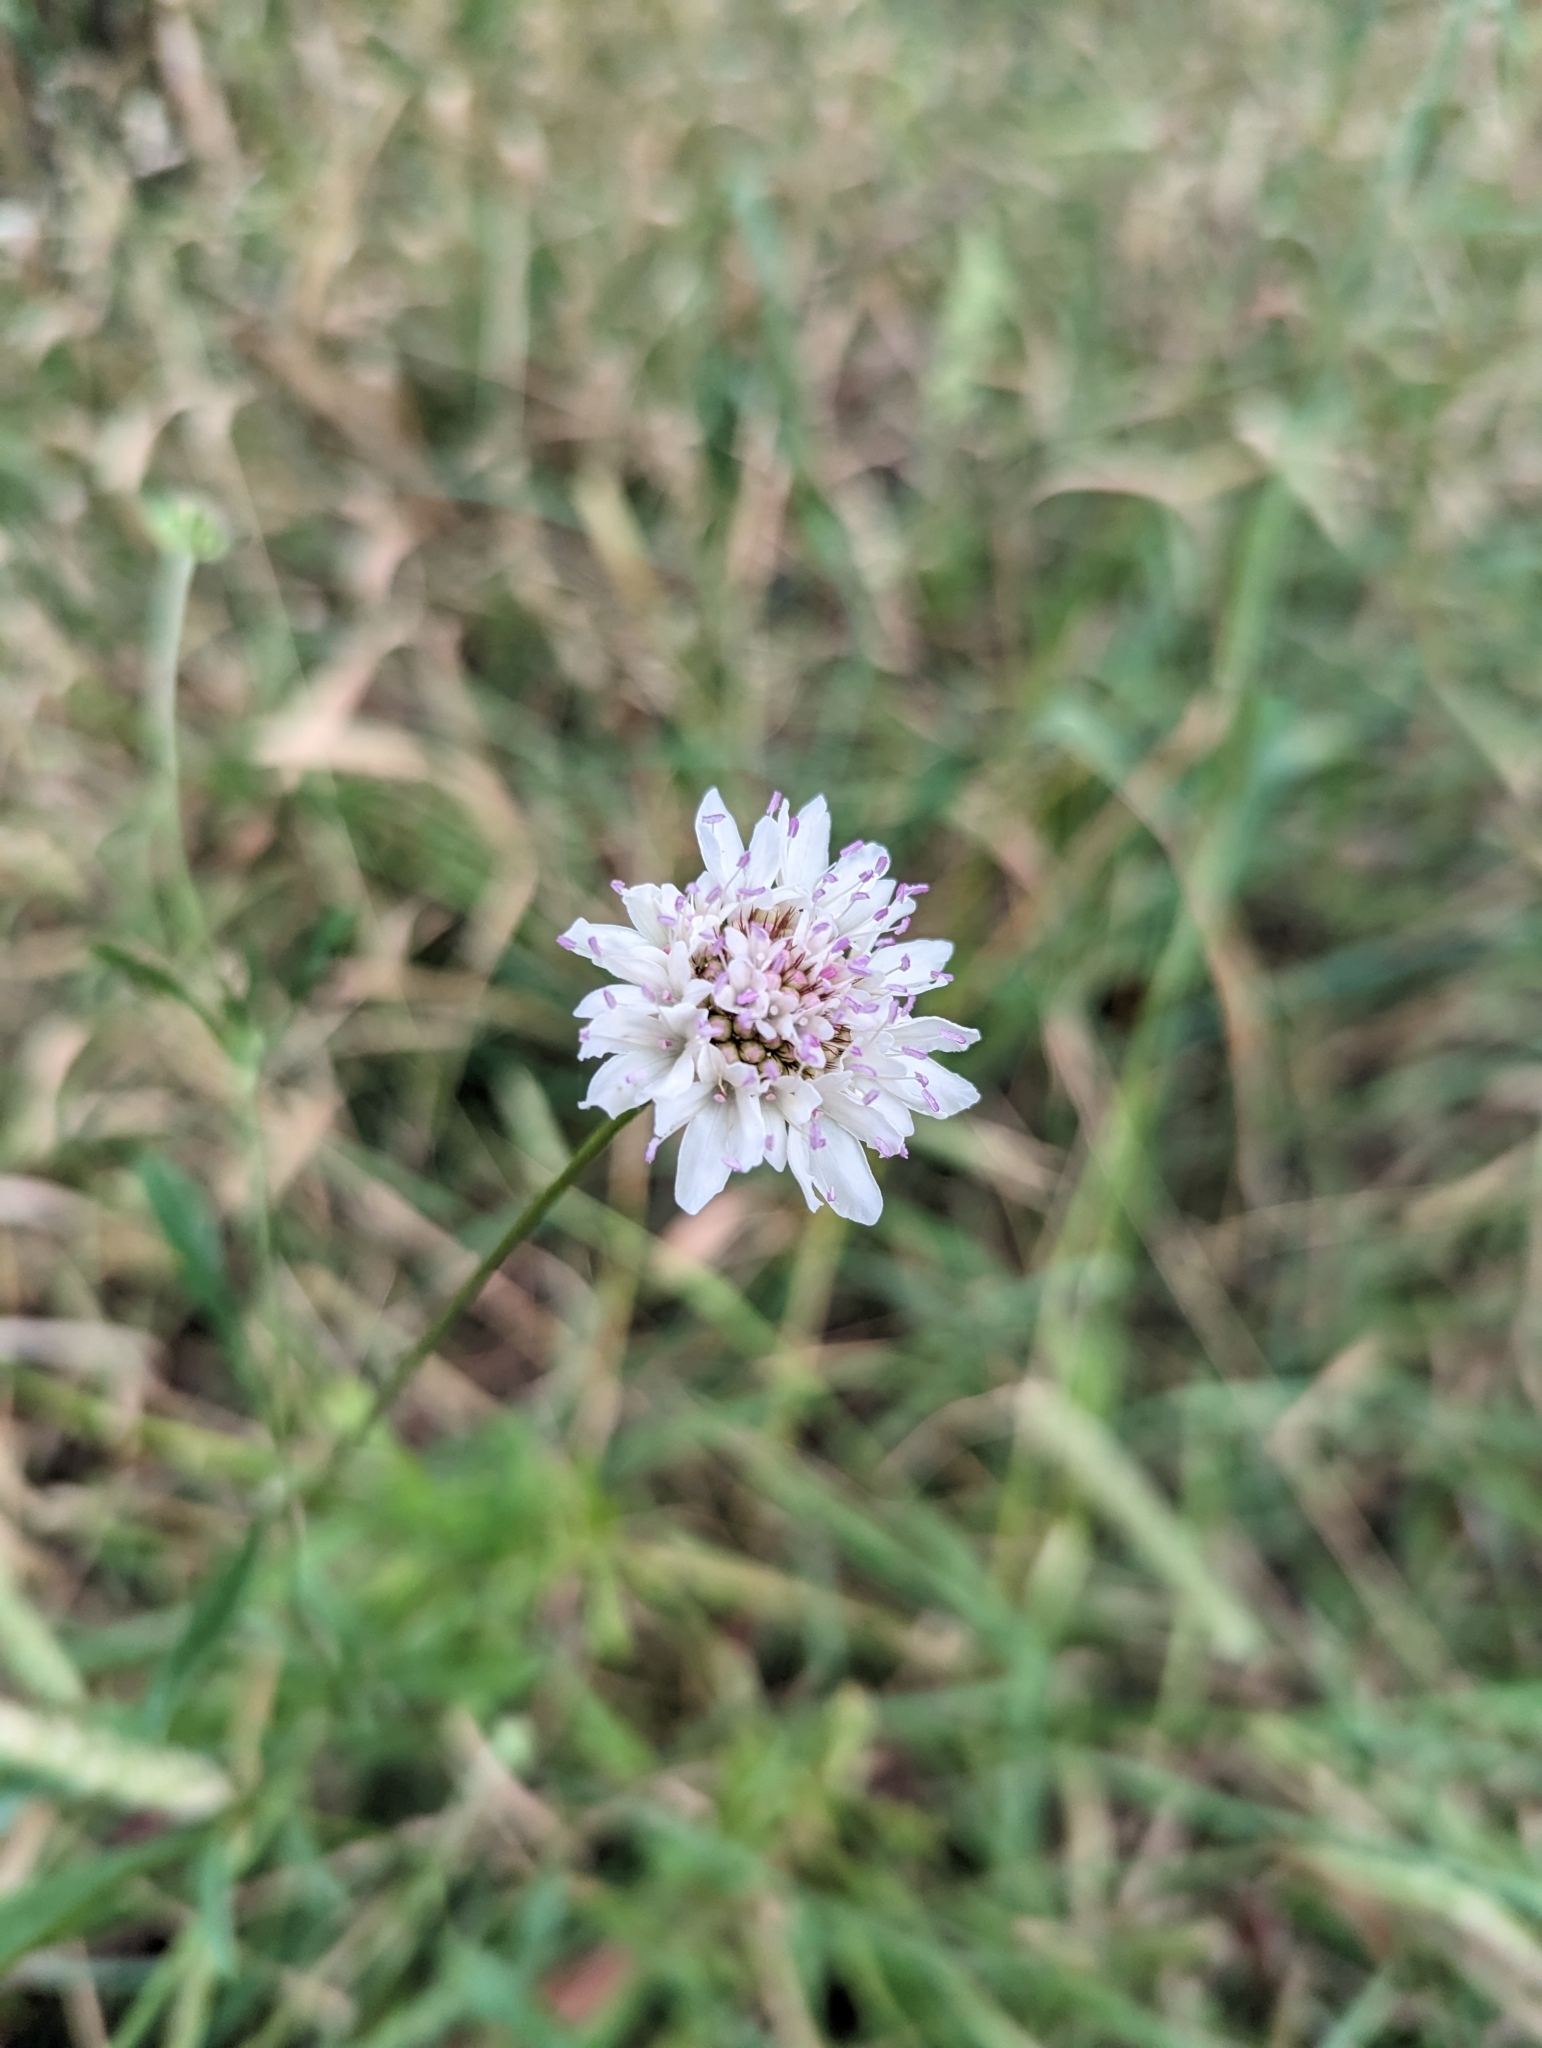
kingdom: Plantae
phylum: Tracheophyta
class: Magnoliopsida
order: Dipsacales
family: Caprifoliaceae
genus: Sixalix
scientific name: Sixalix atropurpurea
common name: Sweet scabious
